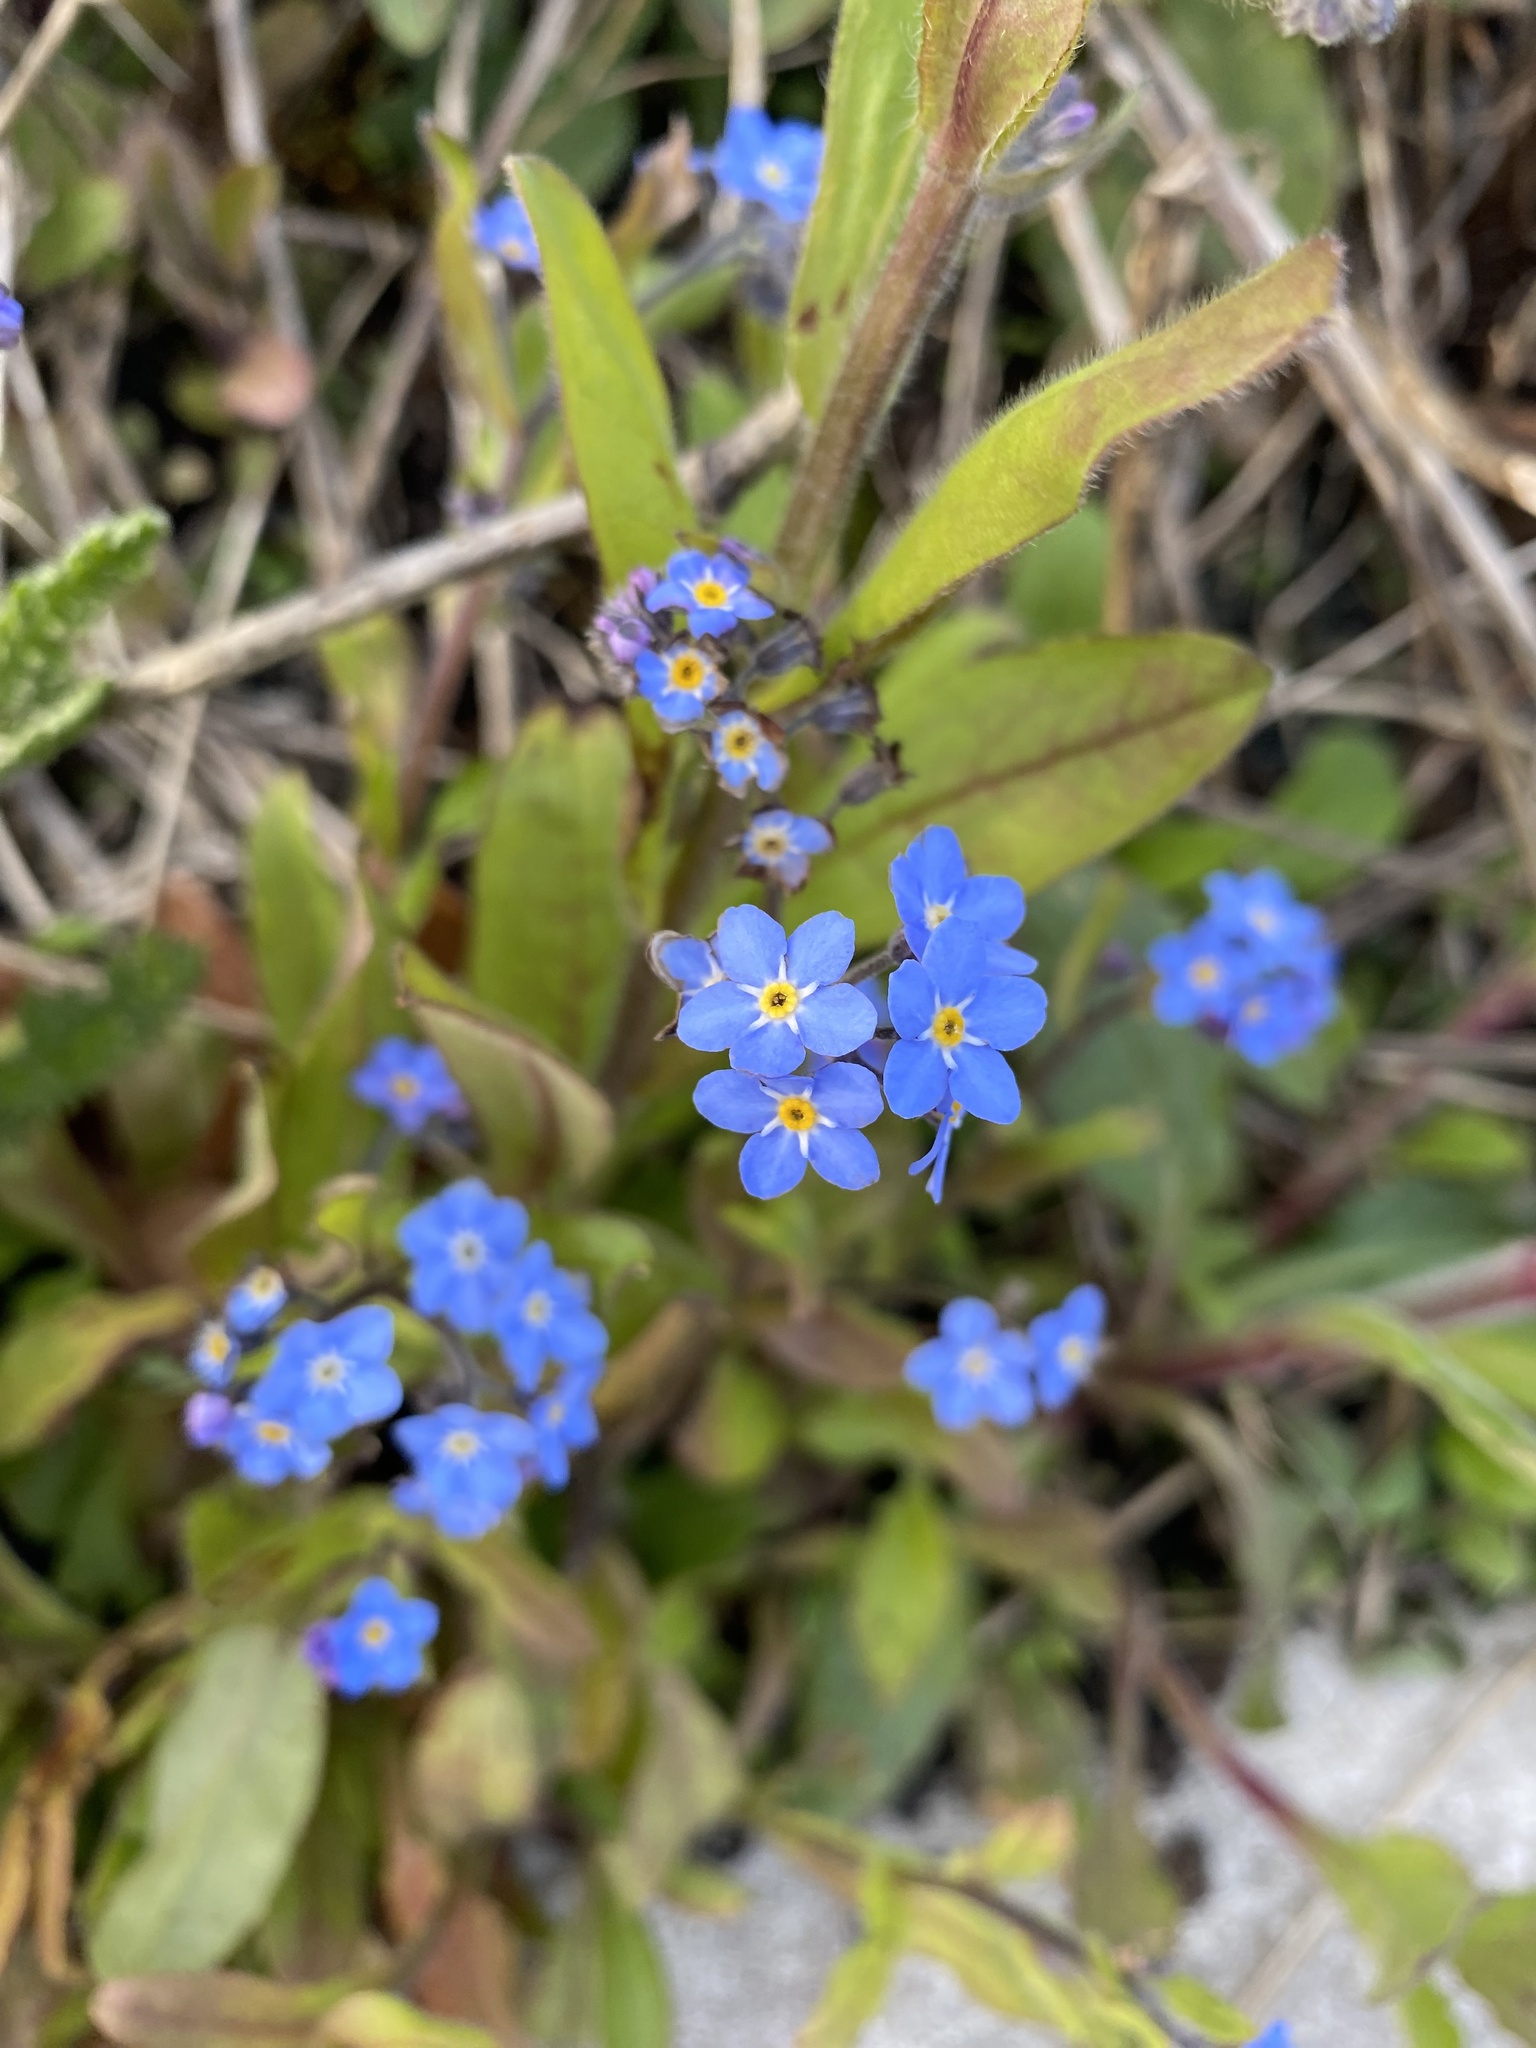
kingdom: Plantae
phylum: Tracheophyta
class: Magnoliopsida
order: Boraginales
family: Boraginaceae
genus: Myosotis
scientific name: Myosotis sylvatica
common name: Wood forget-me-not
